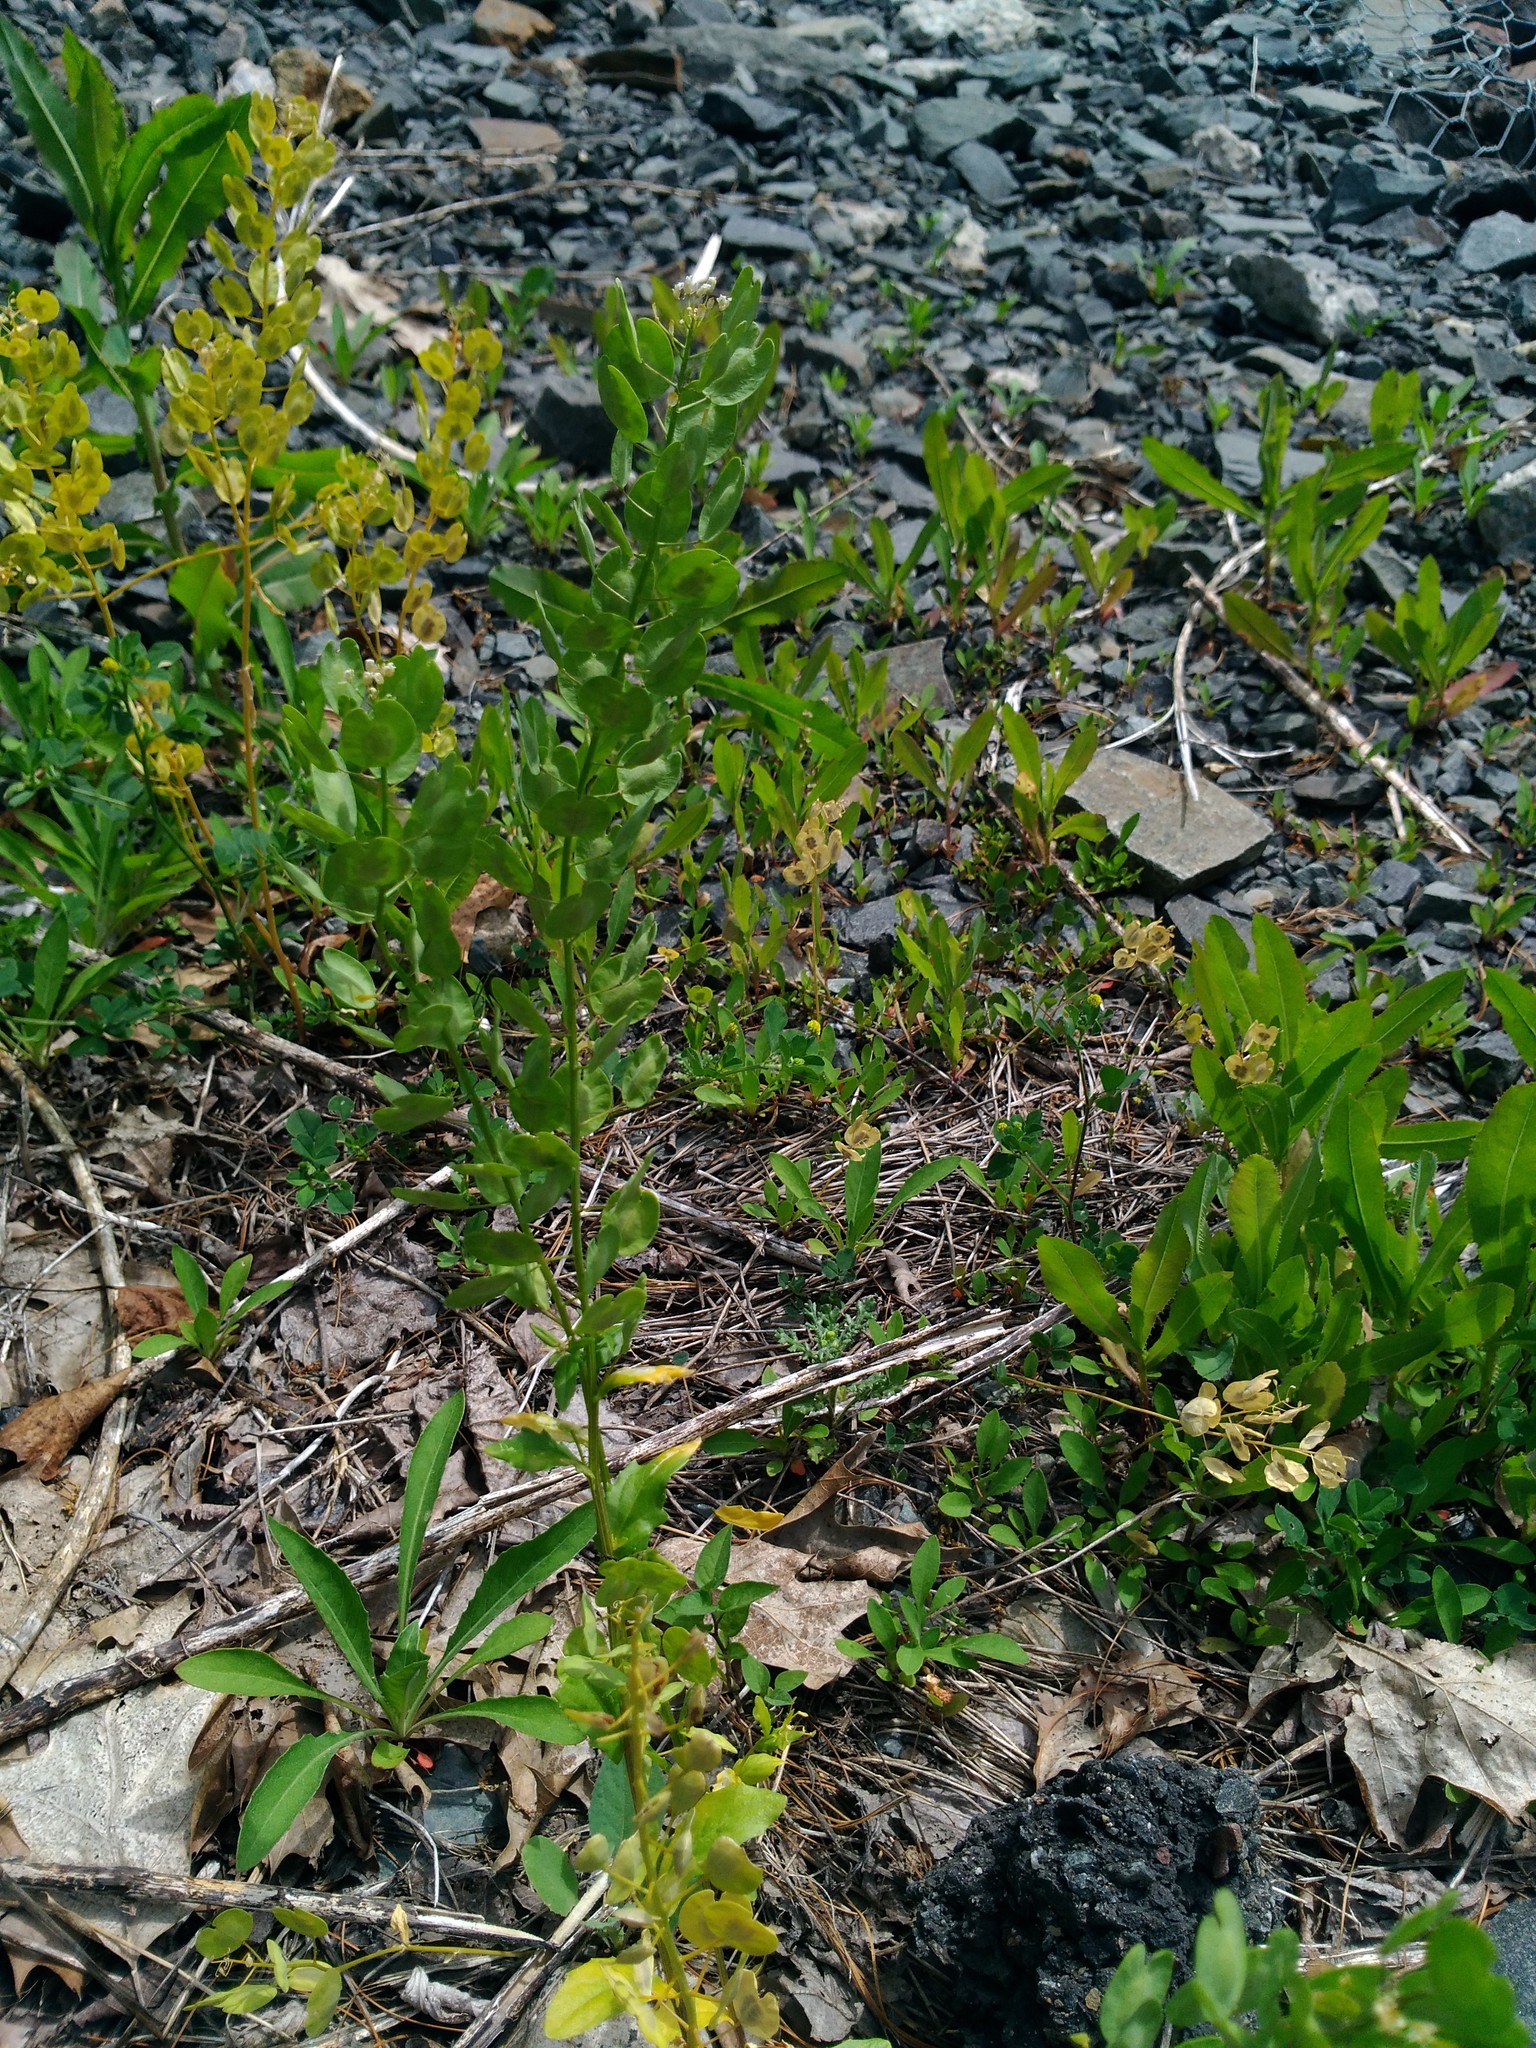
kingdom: Plantae
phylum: Tracheophyta
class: Magnoliopsida
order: Brassicales
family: Brassicaceae
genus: Thlaspi
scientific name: Thlaspi arvense
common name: Field pennycress
